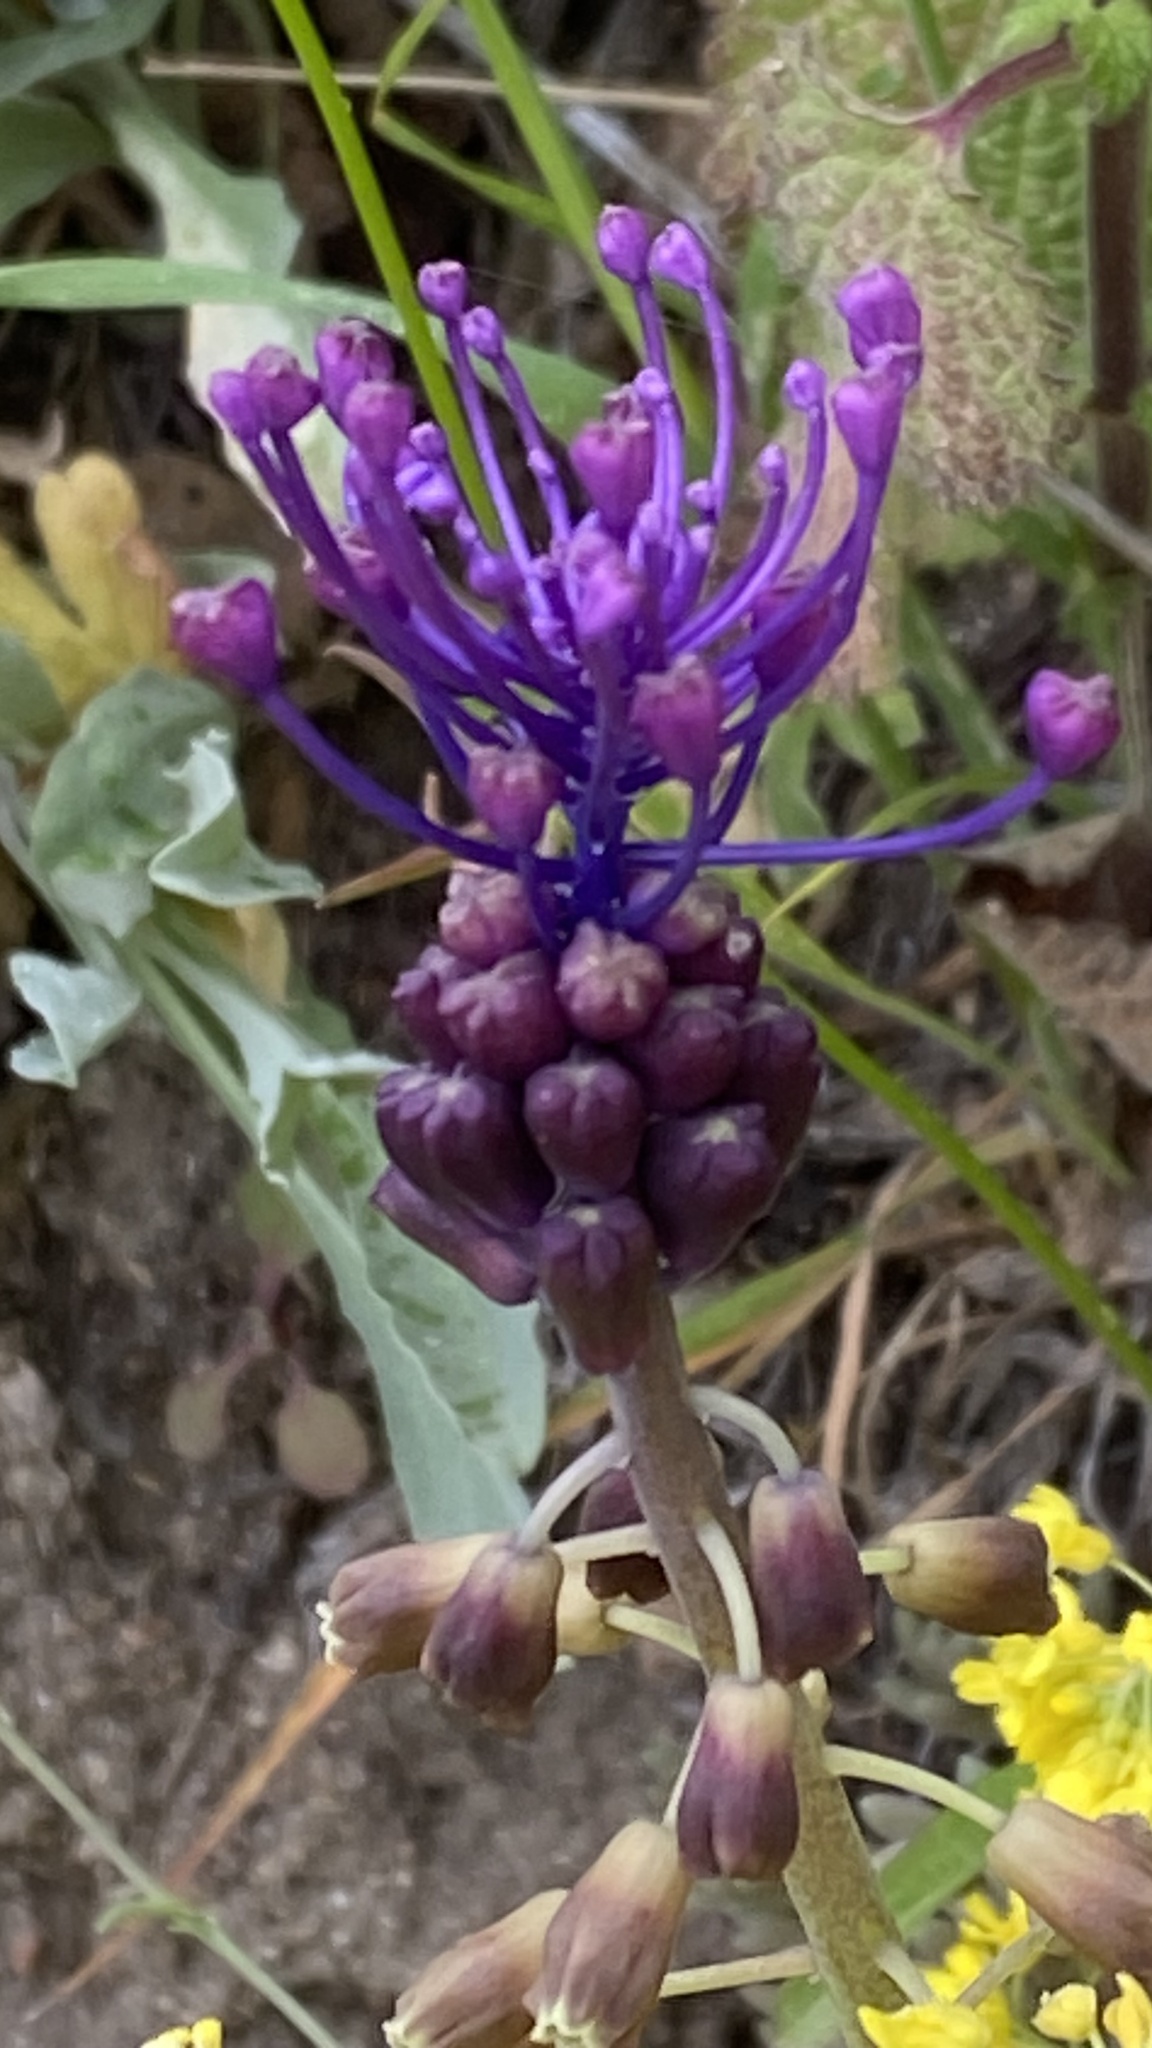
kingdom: Plantae
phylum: Tracheophyta
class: Liliopsida
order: Asparagales
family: Asparagaceae
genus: Muscari
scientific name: Muscari comosum
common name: Tassel hyacinth
